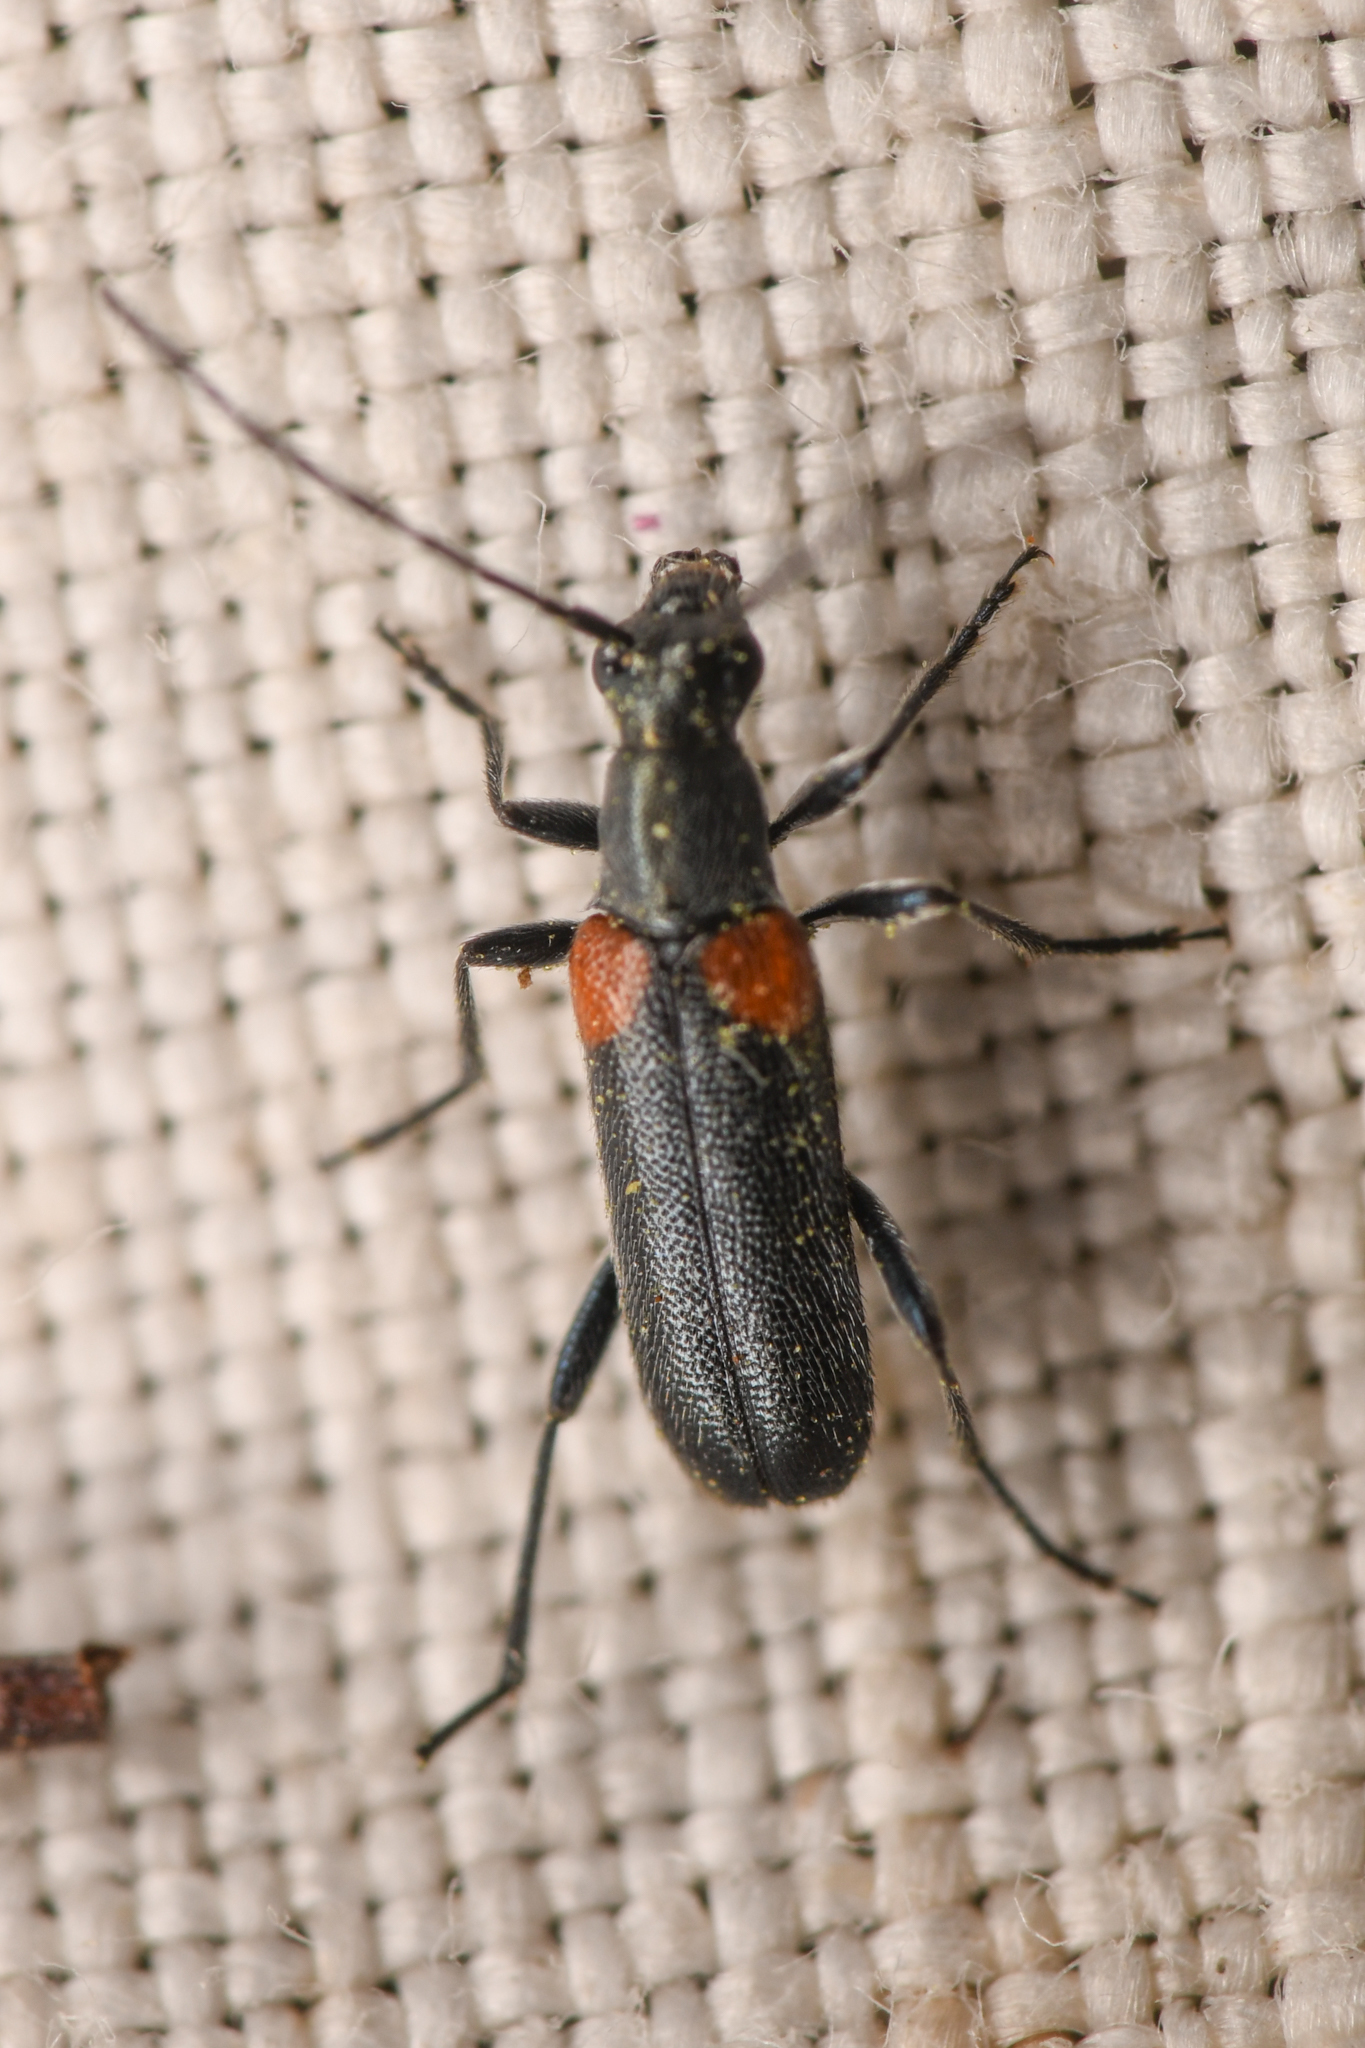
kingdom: Animalia
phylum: Arthropoda
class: Insecta
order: Coleoptera
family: Cerambycidae
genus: Grammoptera
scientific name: Grammoptera militaris
